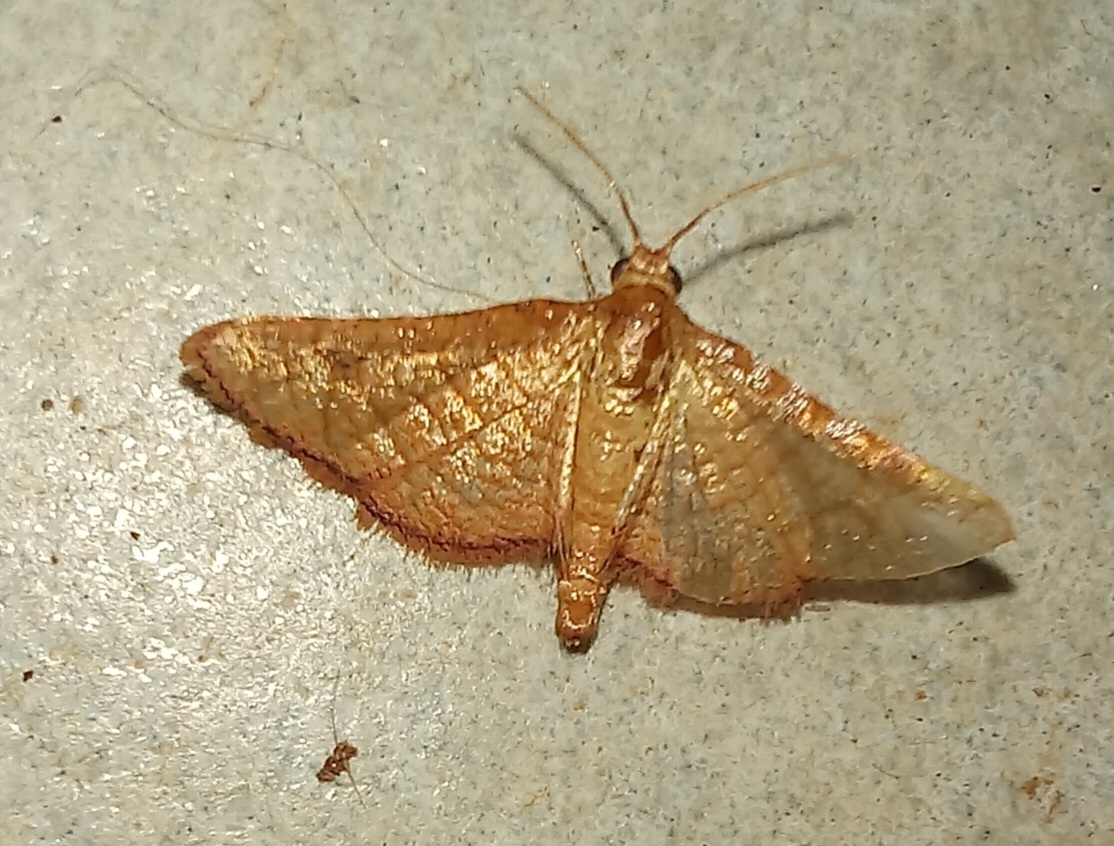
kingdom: Animalia
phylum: Arthropoda
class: Insecta
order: Lepidoptera
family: Thyrididae
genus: Rhodoneura
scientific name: Rhodoneura flavicilia
